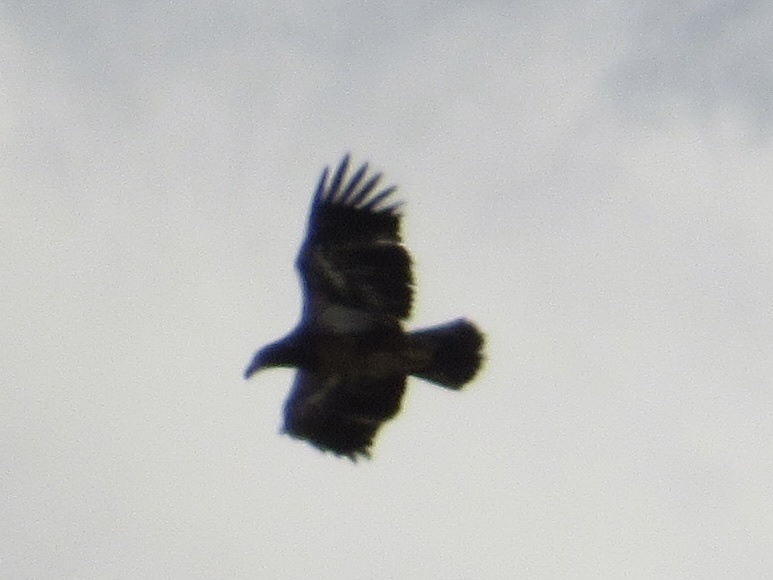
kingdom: Animalia
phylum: Chordata
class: Aves
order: Accipitriformes
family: Accipitridae
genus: Haliaeetus
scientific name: Haliaeetus leucocephalus
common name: Bald eagle
